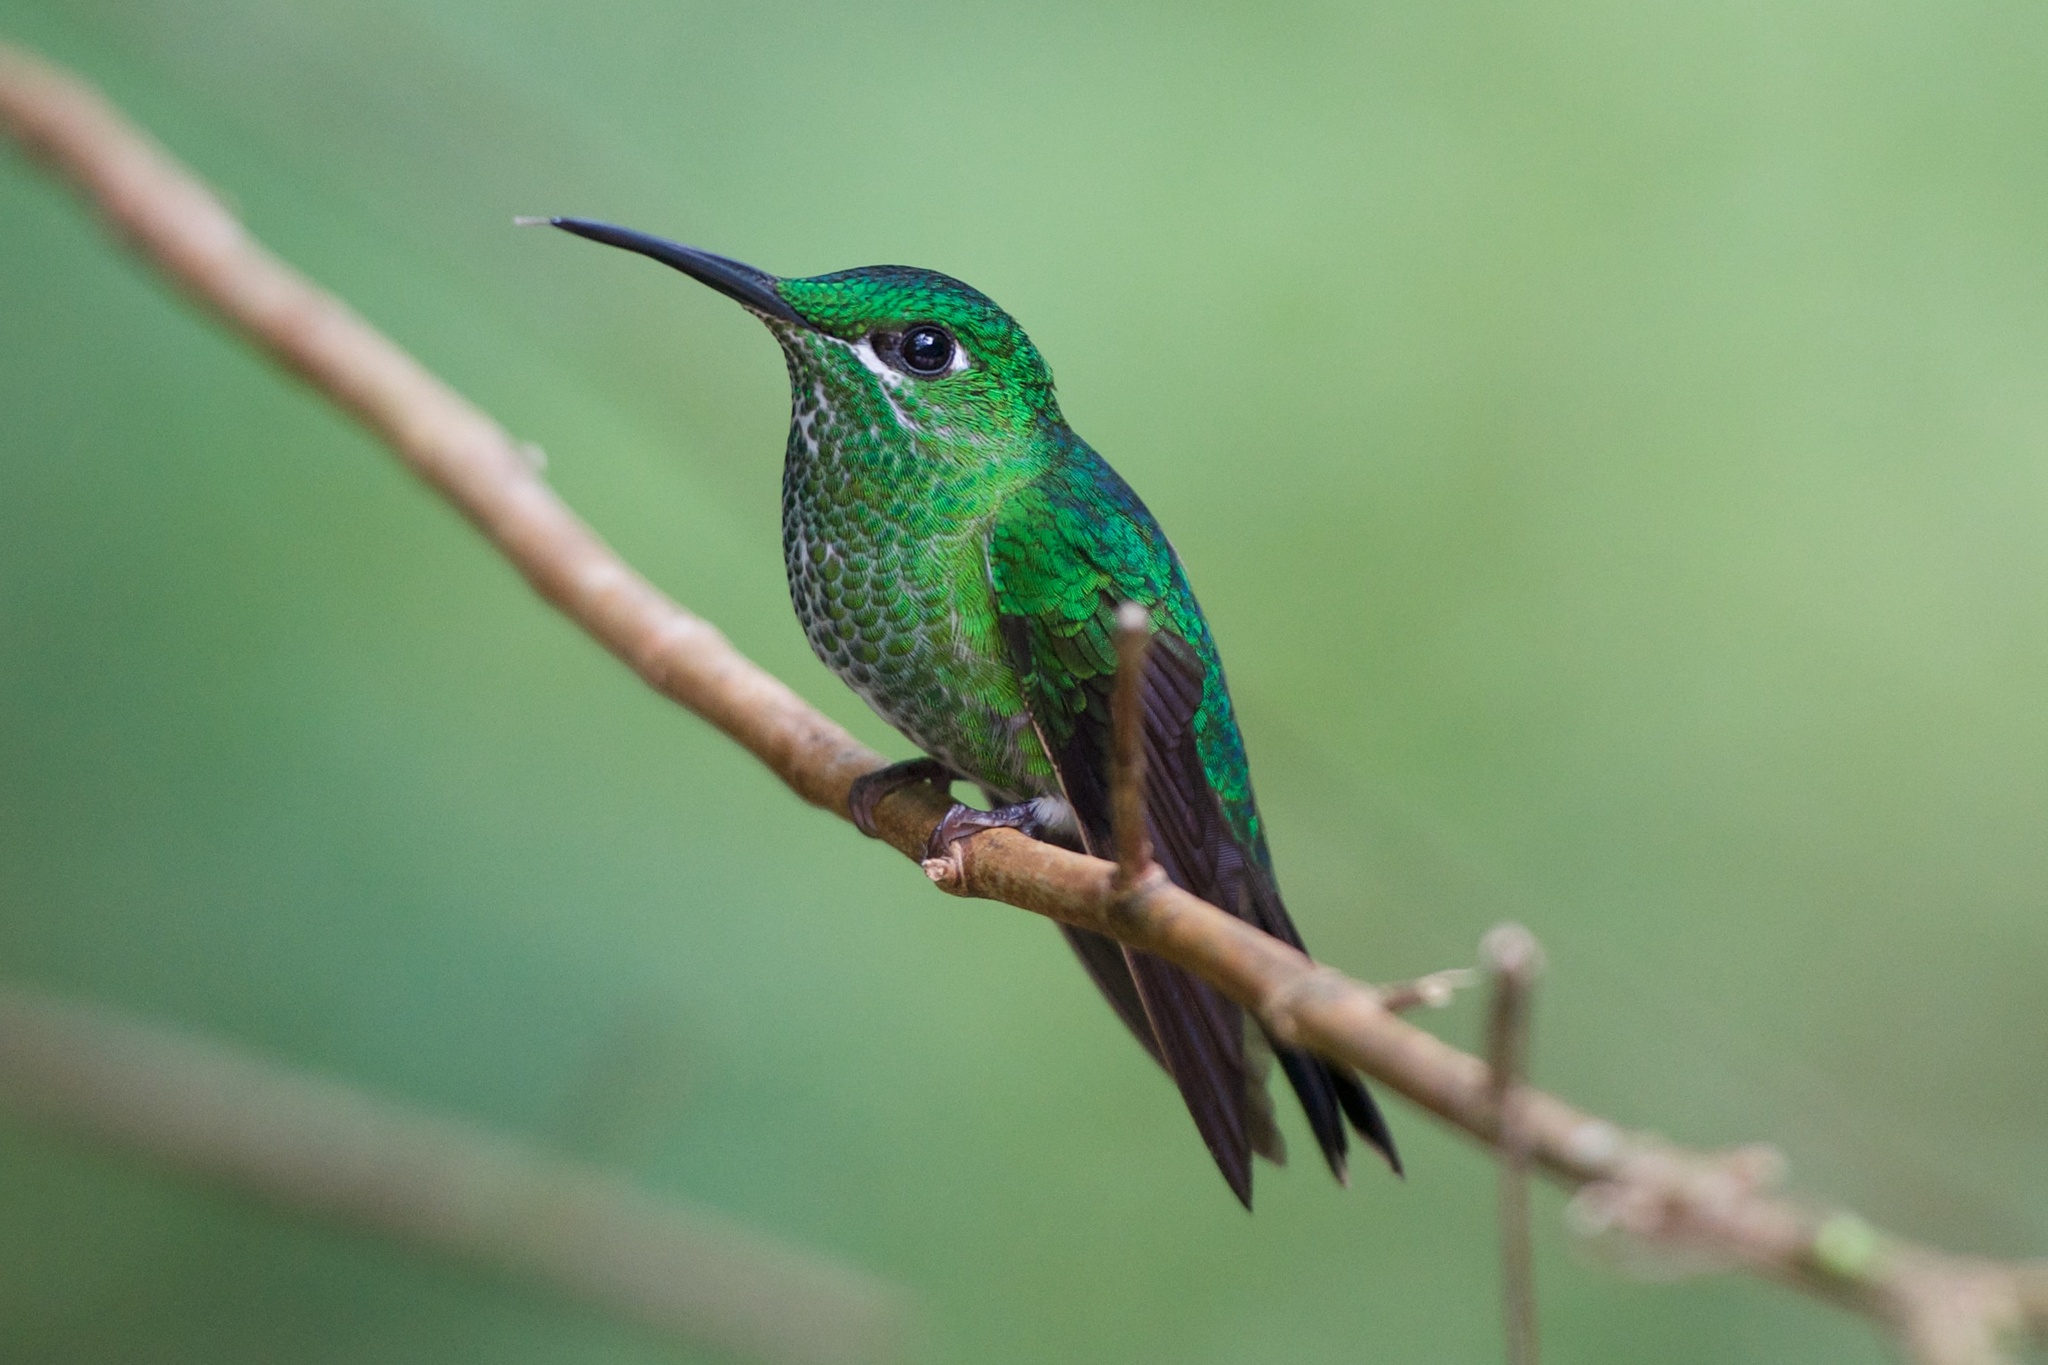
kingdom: Animalia
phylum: Chordata
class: Aves
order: Apodiformes
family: Trochilidae
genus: Heliodoxa
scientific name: Heliodoxa jacula
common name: Green-crowned brilliant
